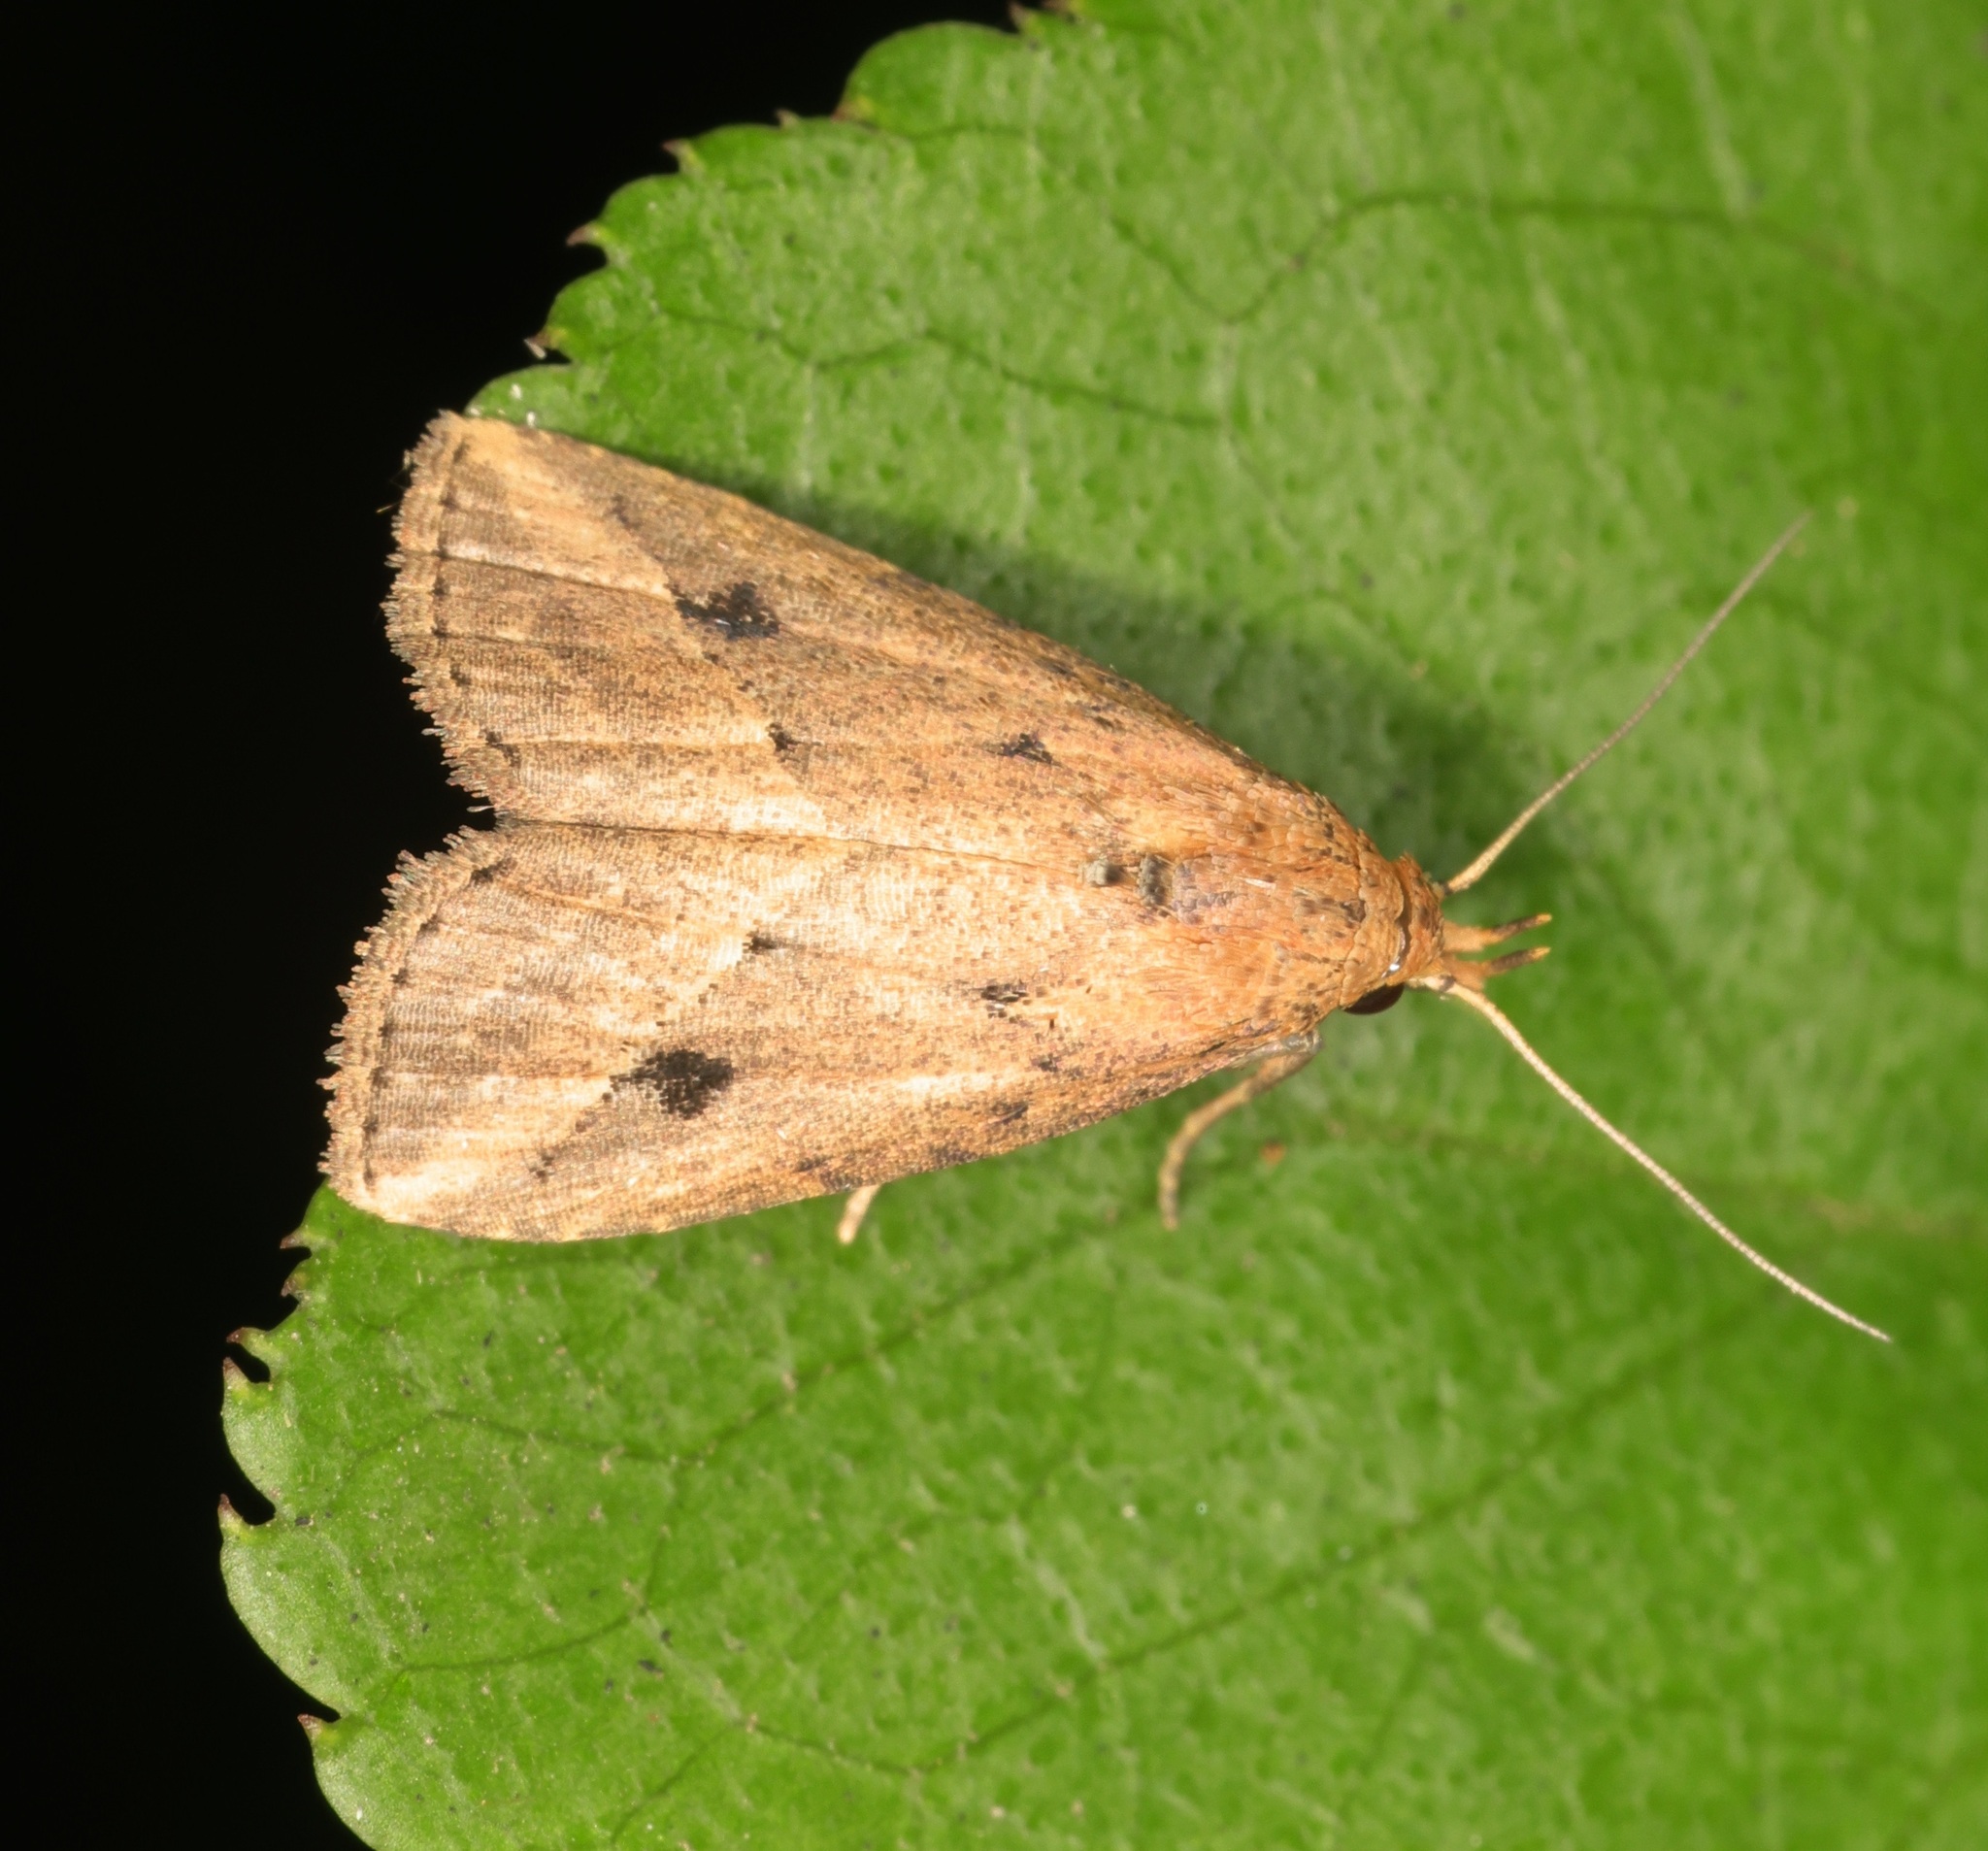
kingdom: Animalia
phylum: Arthropoda
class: Insecta
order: Lepidoptera
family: Erebidae
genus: Luceria
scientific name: Luceria oculalis
